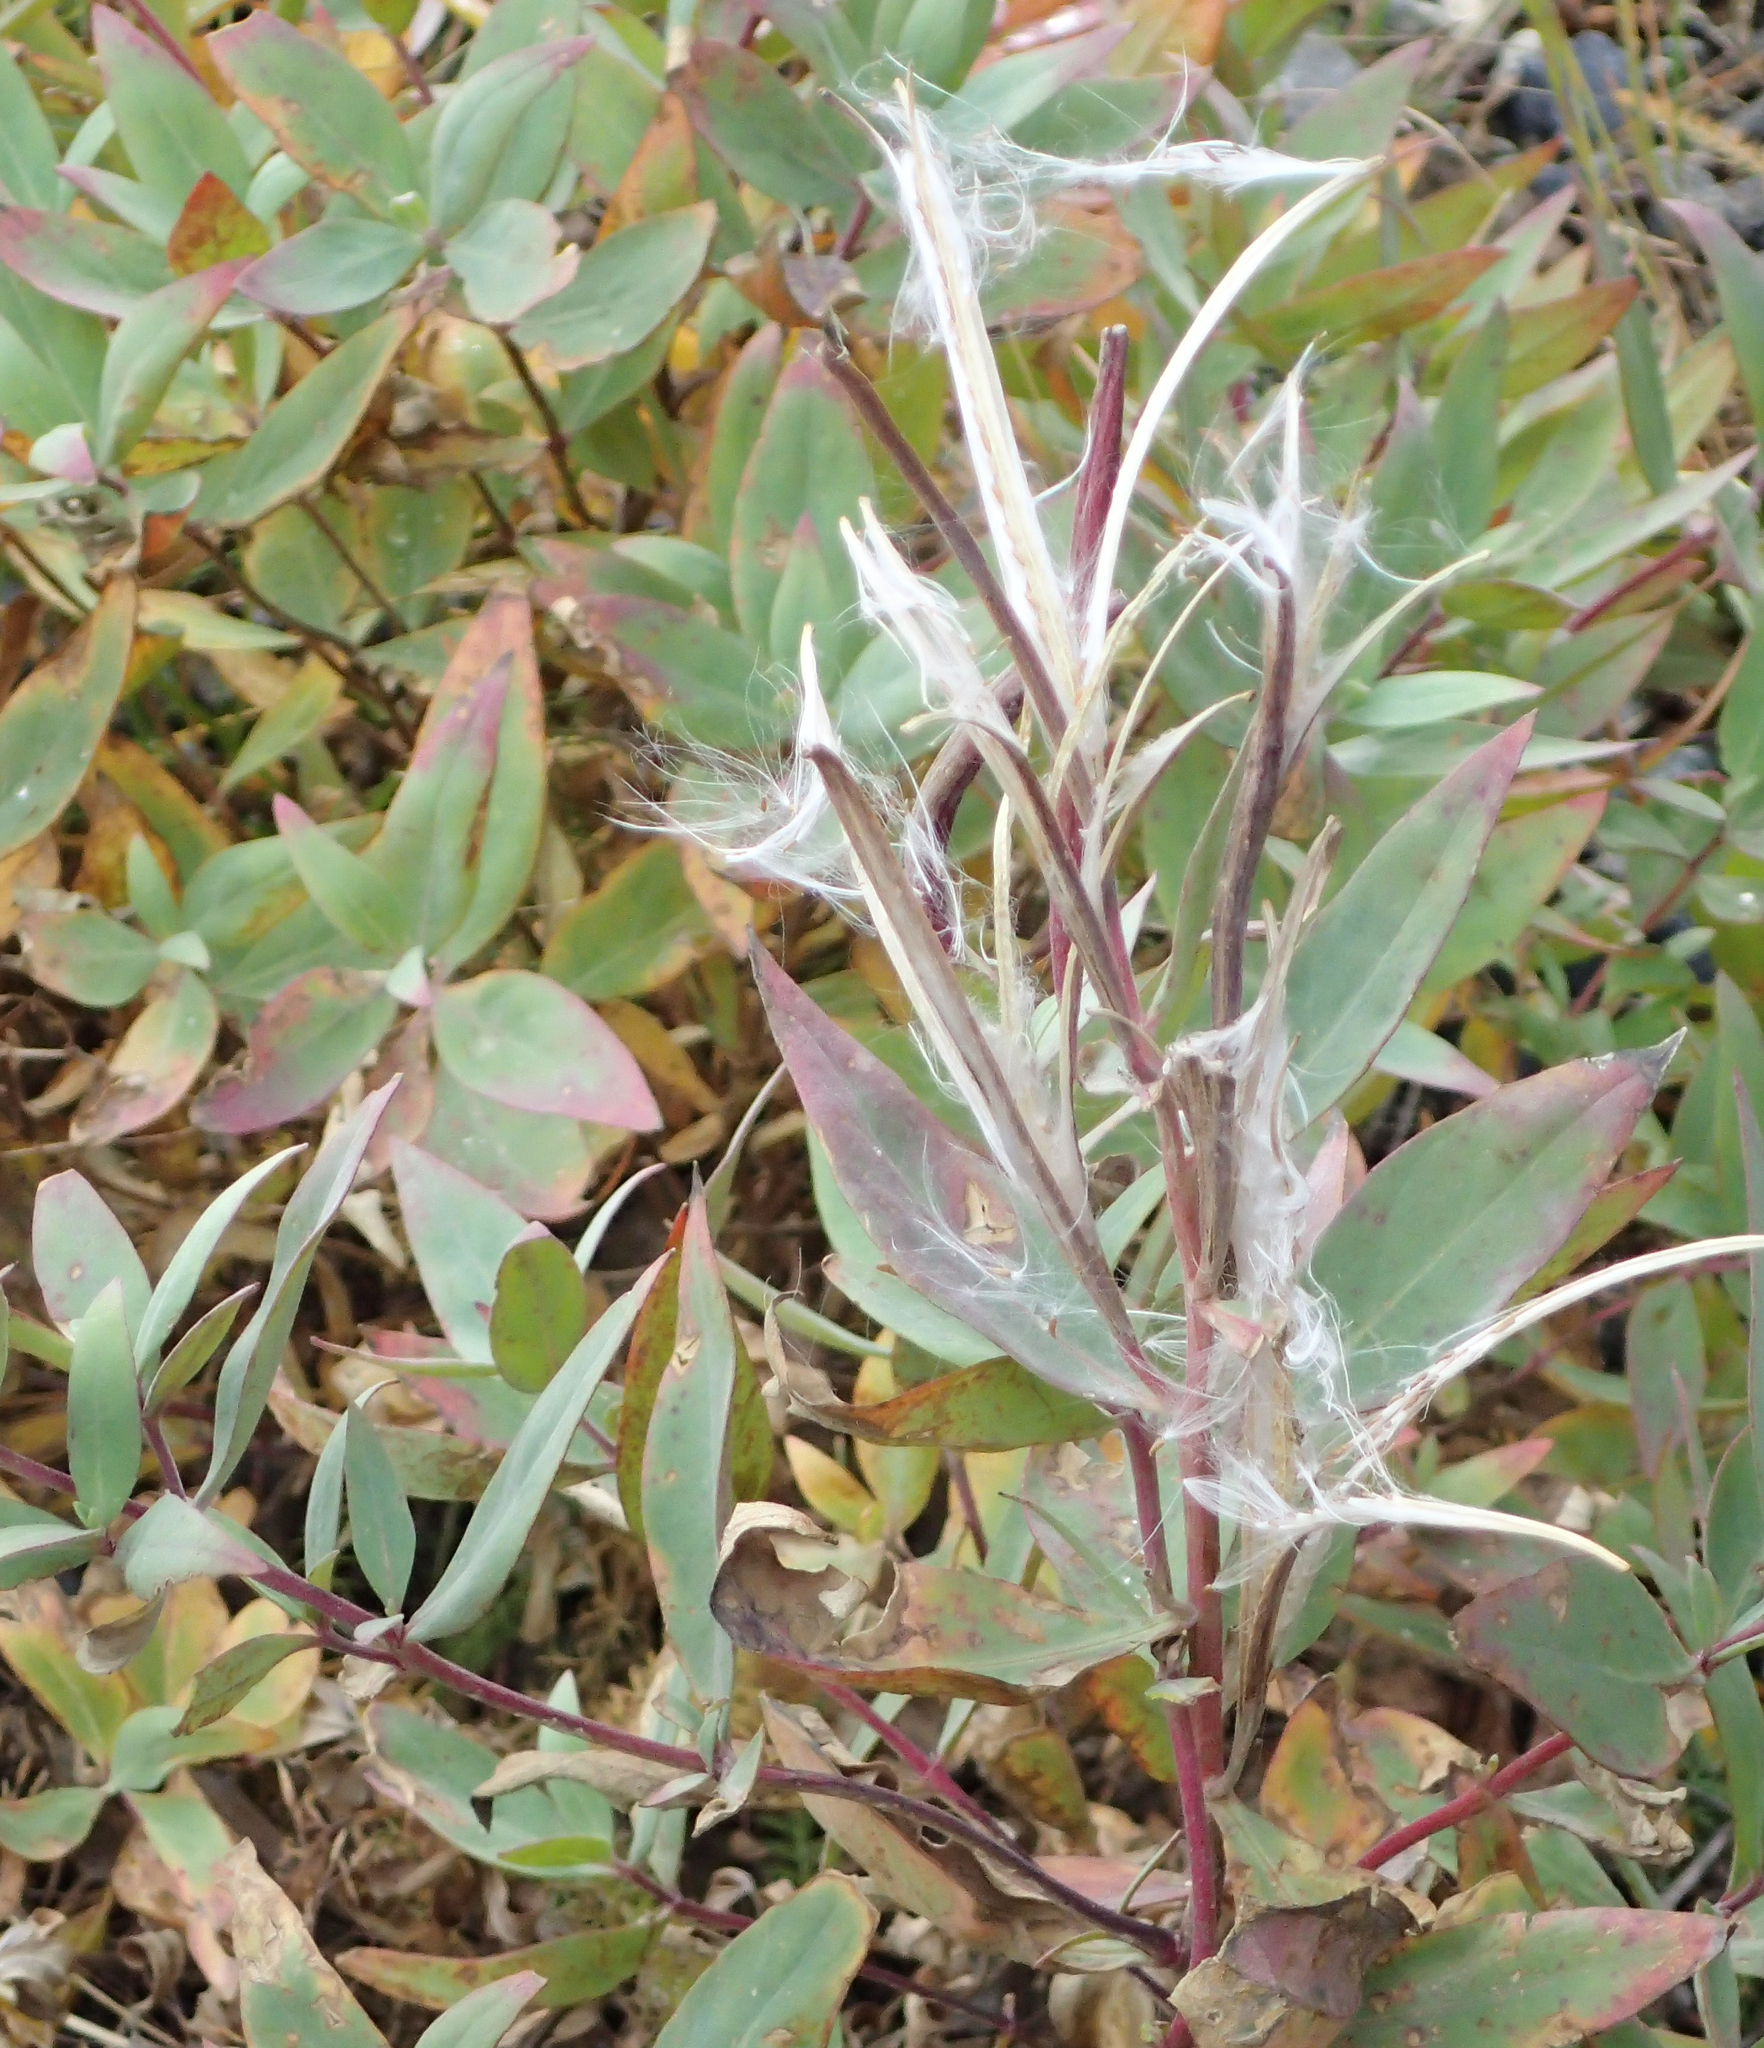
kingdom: Plantae
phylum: Tracheophyta
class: Magnoliopsida
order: Myrtales
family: Onagraceae
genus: Chamaenerion
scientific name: Chamaenerion latifolium
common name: Dwarf fireweed
